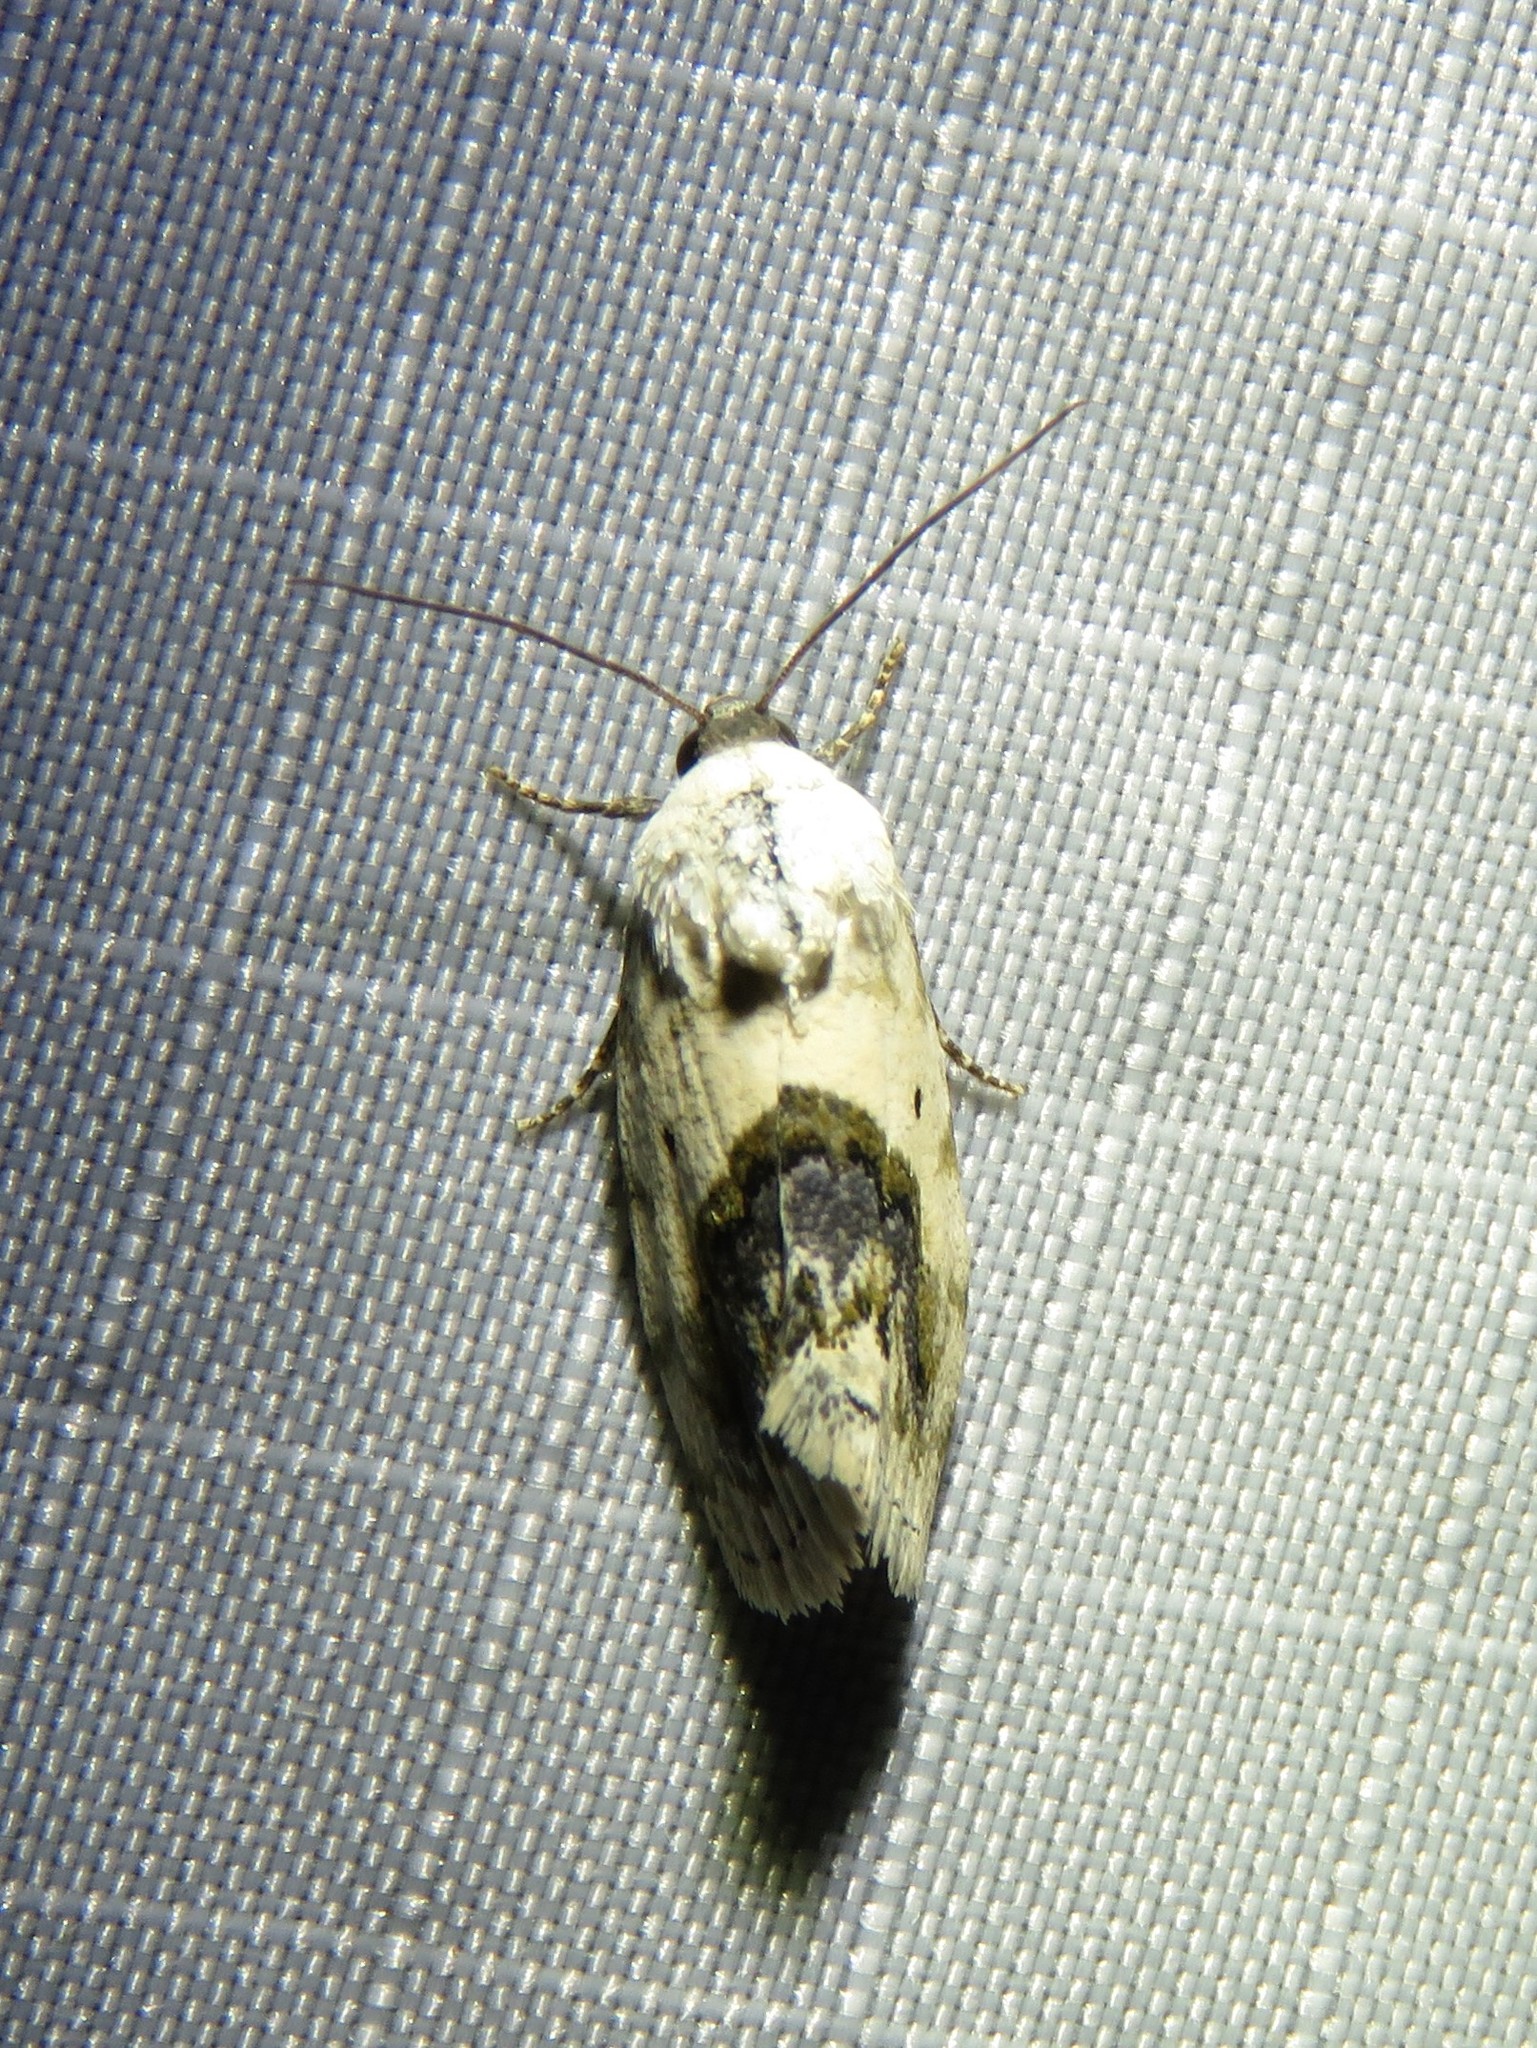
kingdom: Animalia
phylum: Arthropoda
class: Insecta
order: Lepidoptera
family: Noctuidae
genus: Acontia
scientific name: Acontia erastrioides
